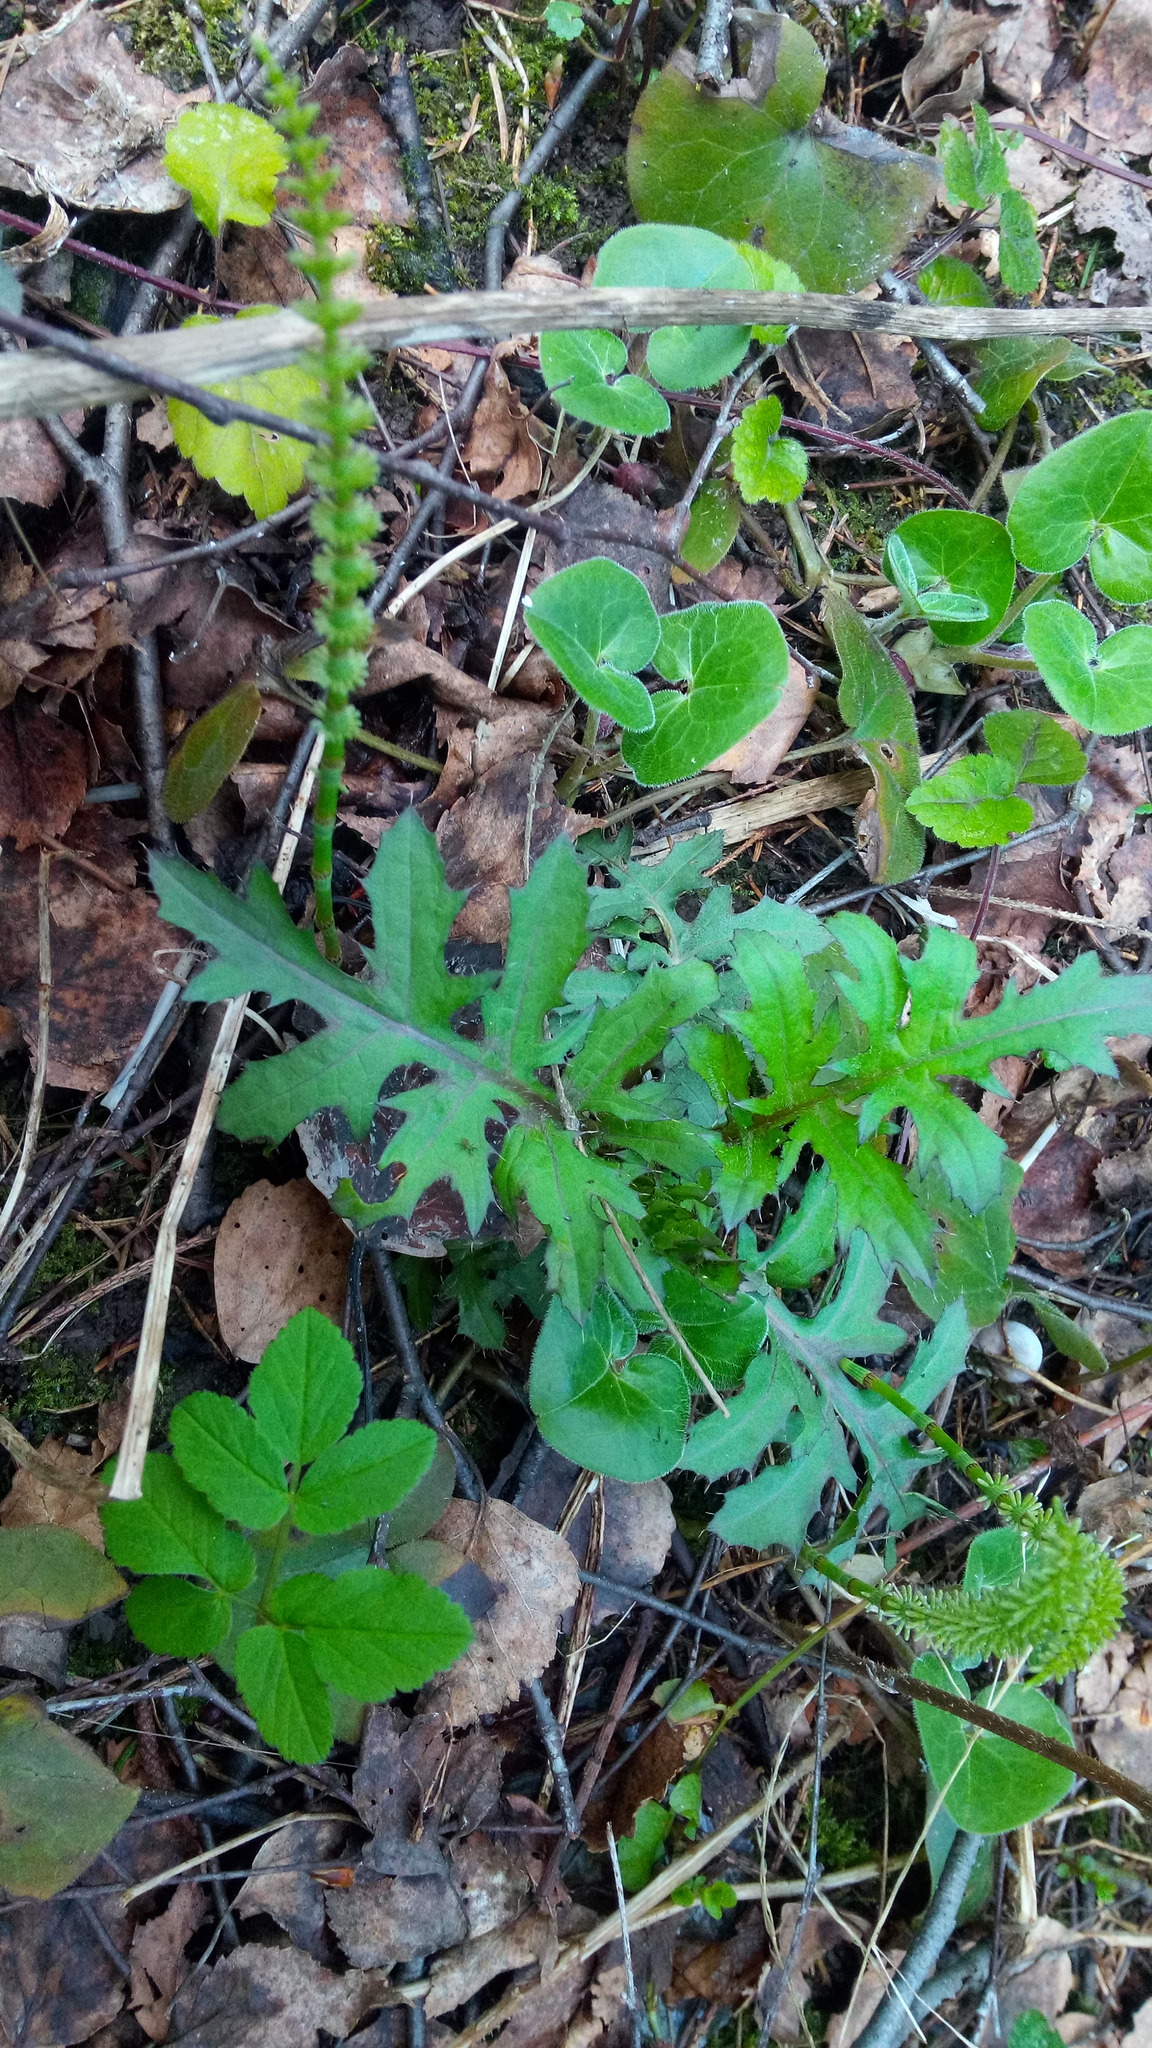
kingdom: Plantae
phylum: Tracheophyta
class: Magnoliopsida
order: Asterales
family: Asteraceae
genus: Cirsium
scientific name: Cirsium oleraceum
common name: Cabbage thistle
